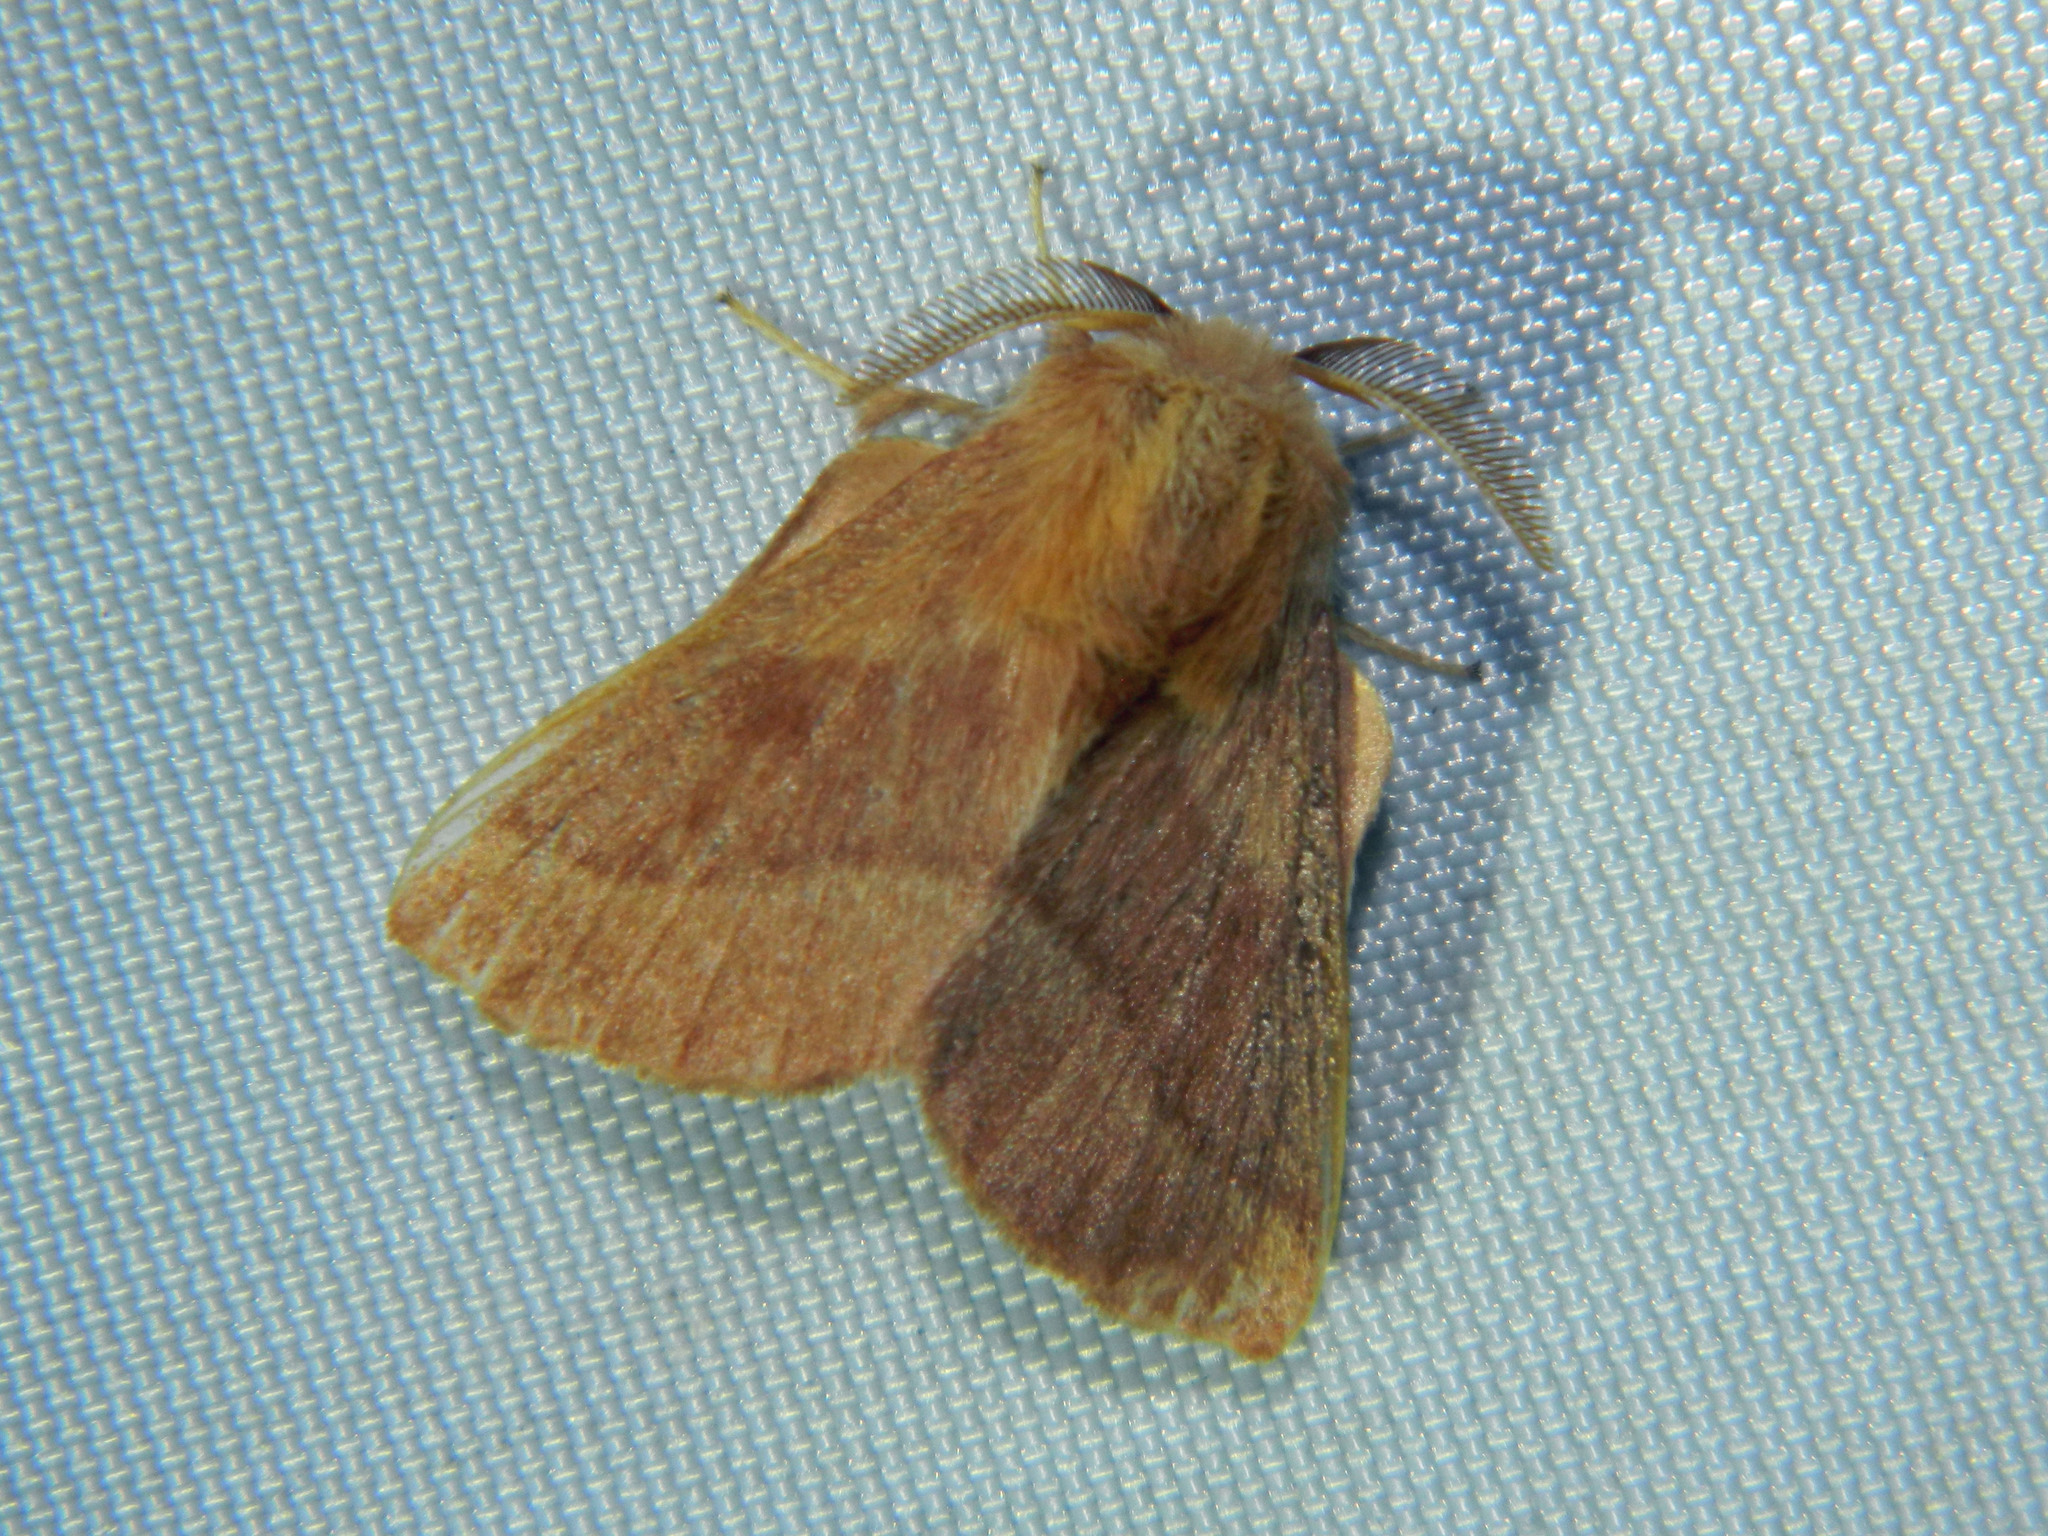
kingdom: Animalia
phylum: Arthropoda
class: Insecta
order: Lepidoptera
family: Lasiocampidae
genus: Malacosoma
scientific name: Malacosoma disstria
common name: Forest tent caterpillar
